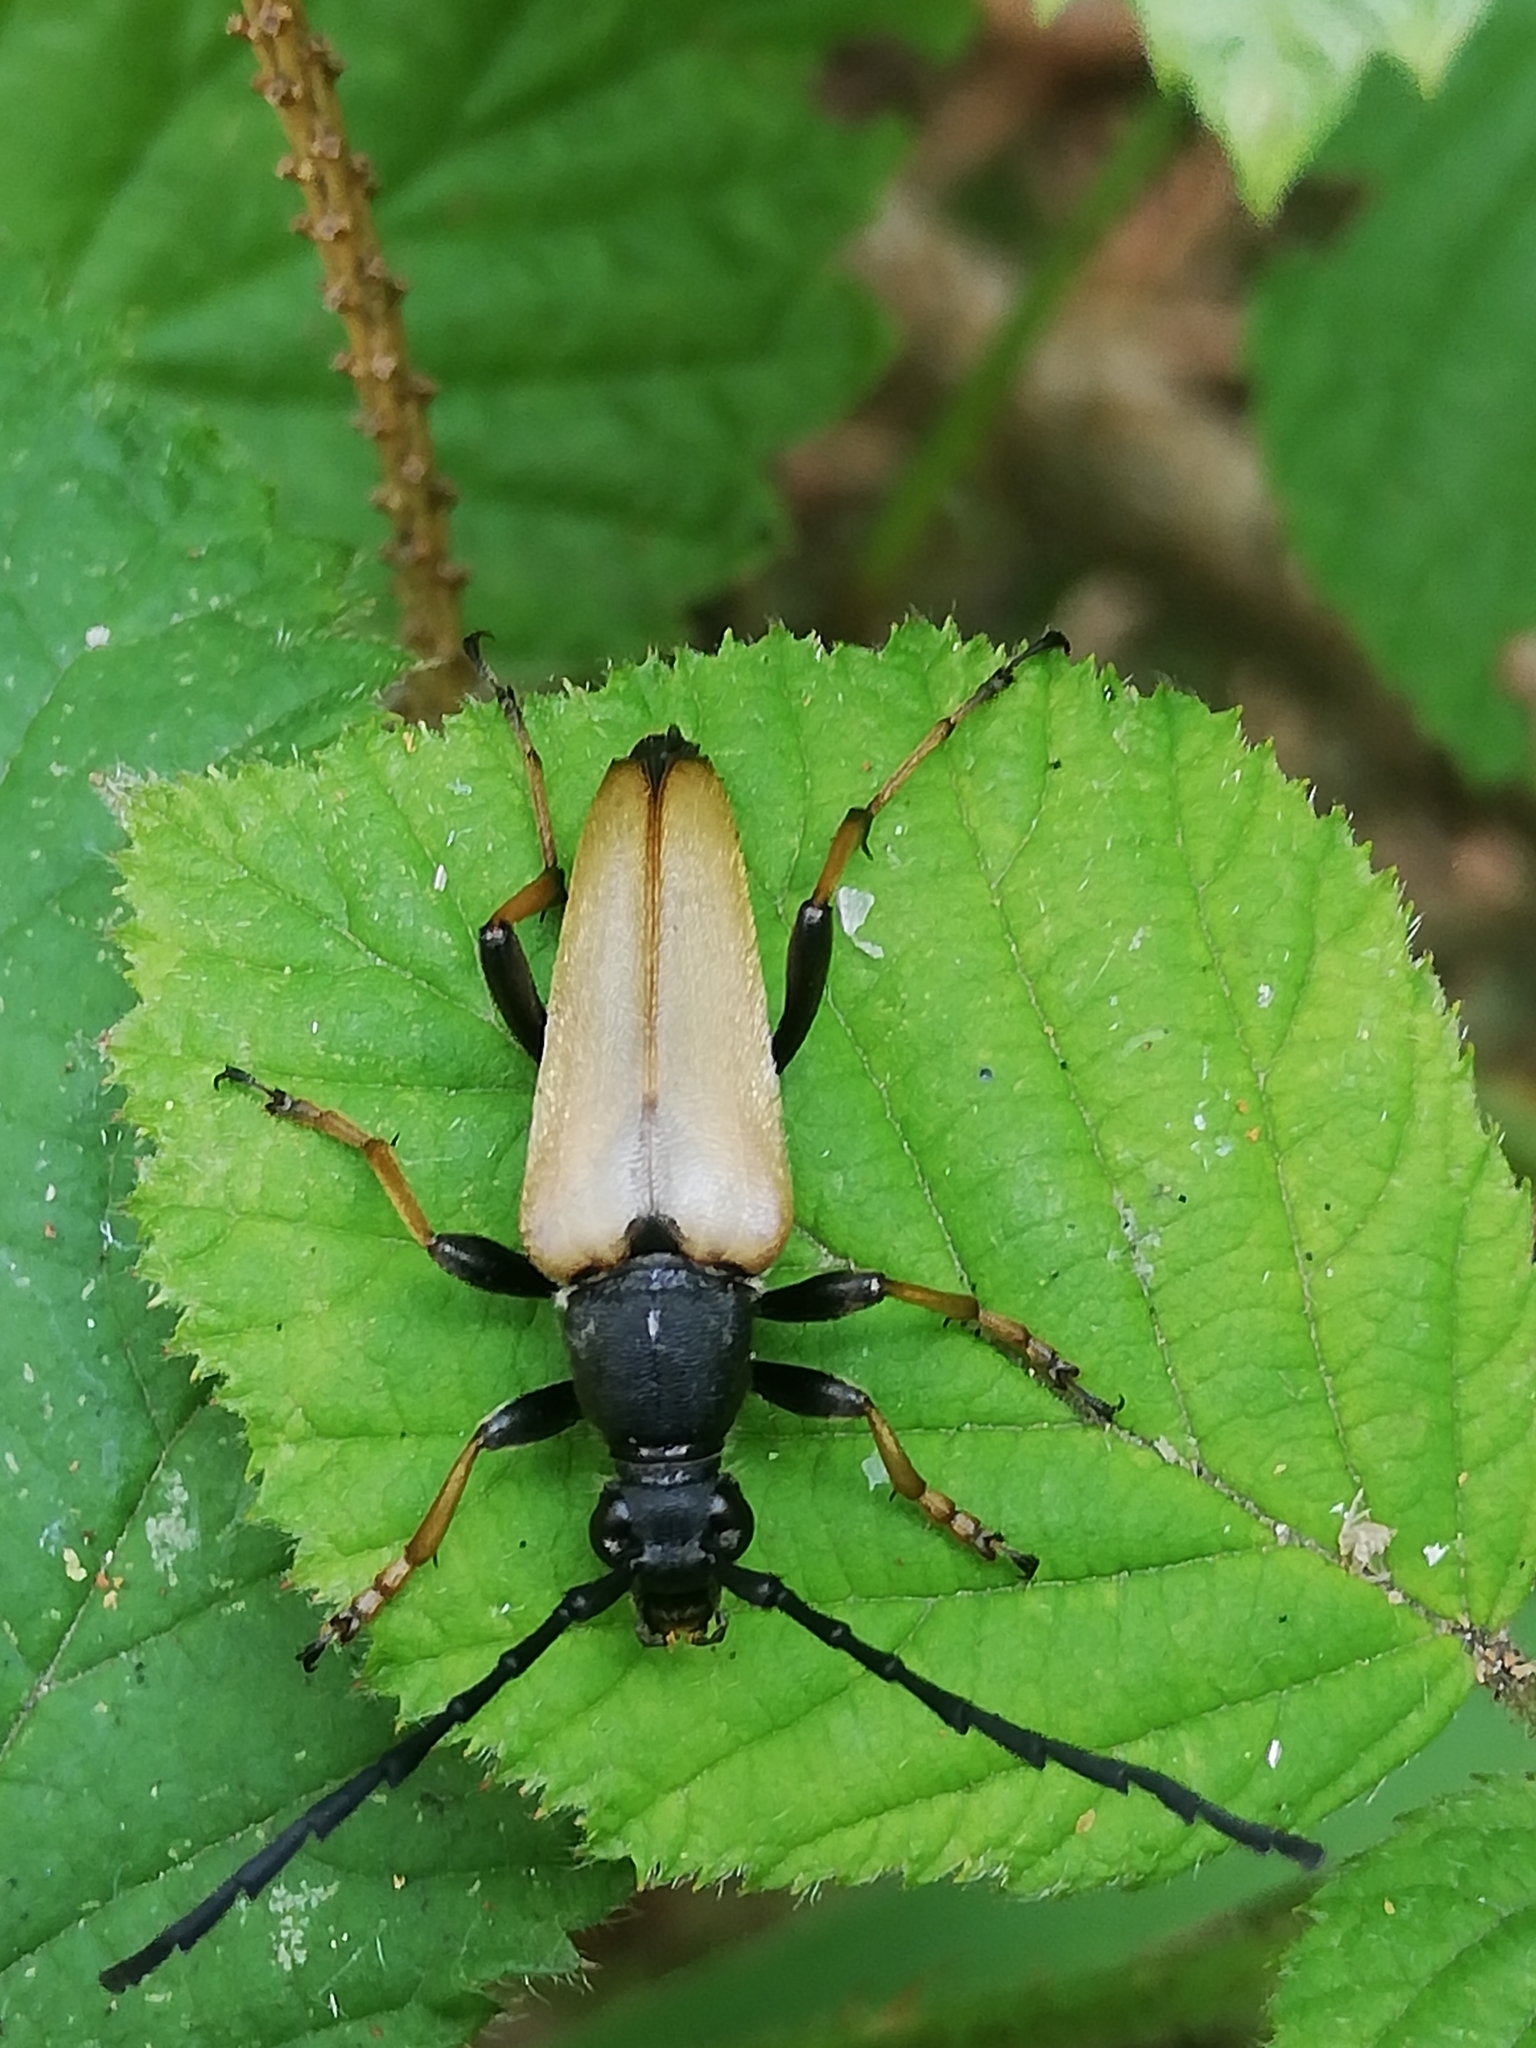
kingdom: Animalia
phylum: Arthropoda
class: Insecta
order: Coleoptera
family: Cerambycidae
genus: Stictoleptura
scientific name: Stictoleptura rubra
